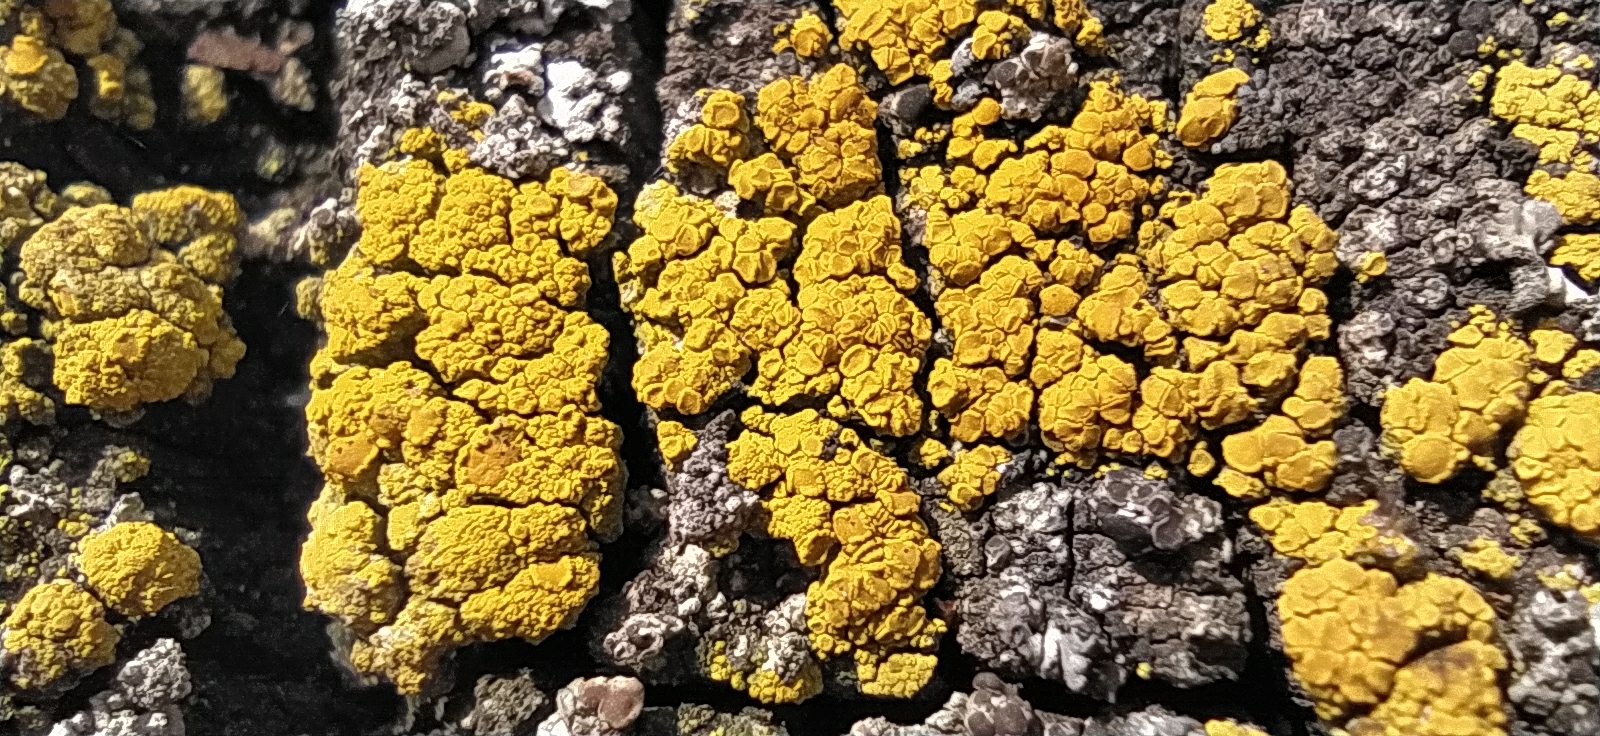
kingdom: Fungi
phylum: Ascomycota
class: Candelariomycetes
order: Candelariales
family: Candelariaceae
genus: Candelariella
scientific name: Candelariella vitellina
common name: Common goldspeck
